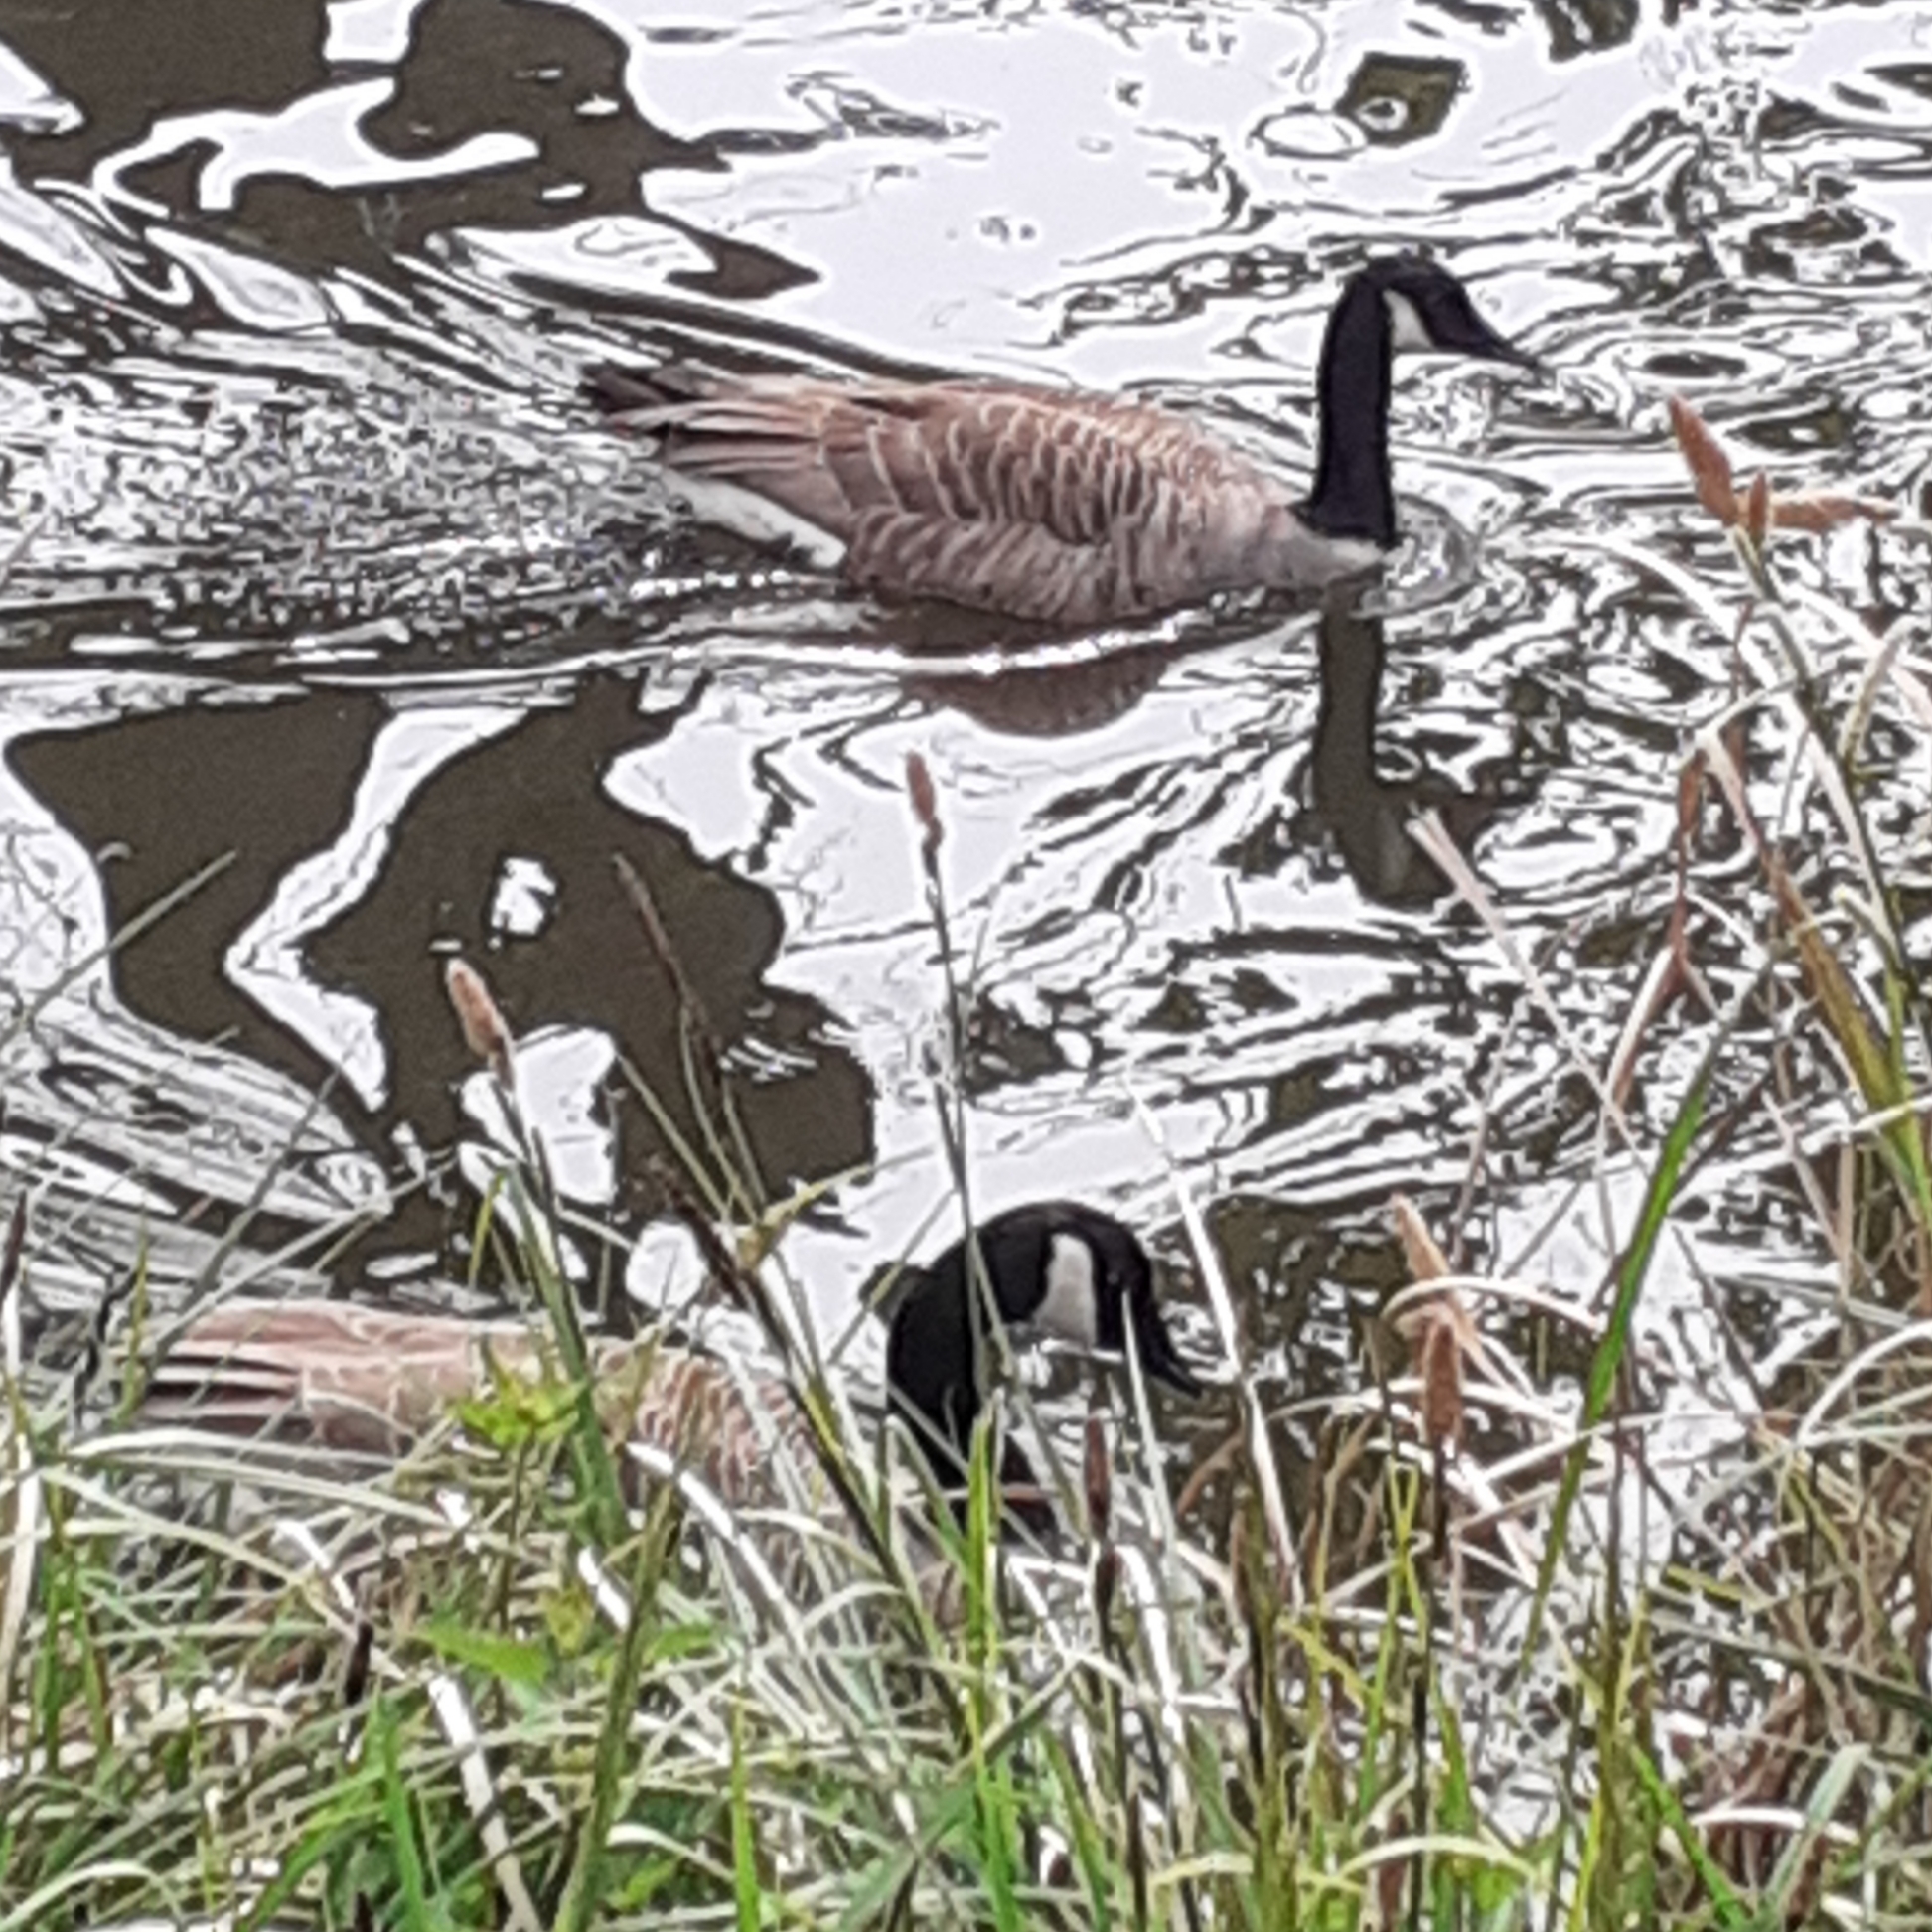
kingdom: Animalia
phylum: Chordata
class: Aves
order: Anseriformes
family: Anatidae
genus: Branta
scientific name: Branta canadensis
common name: Canada goose
